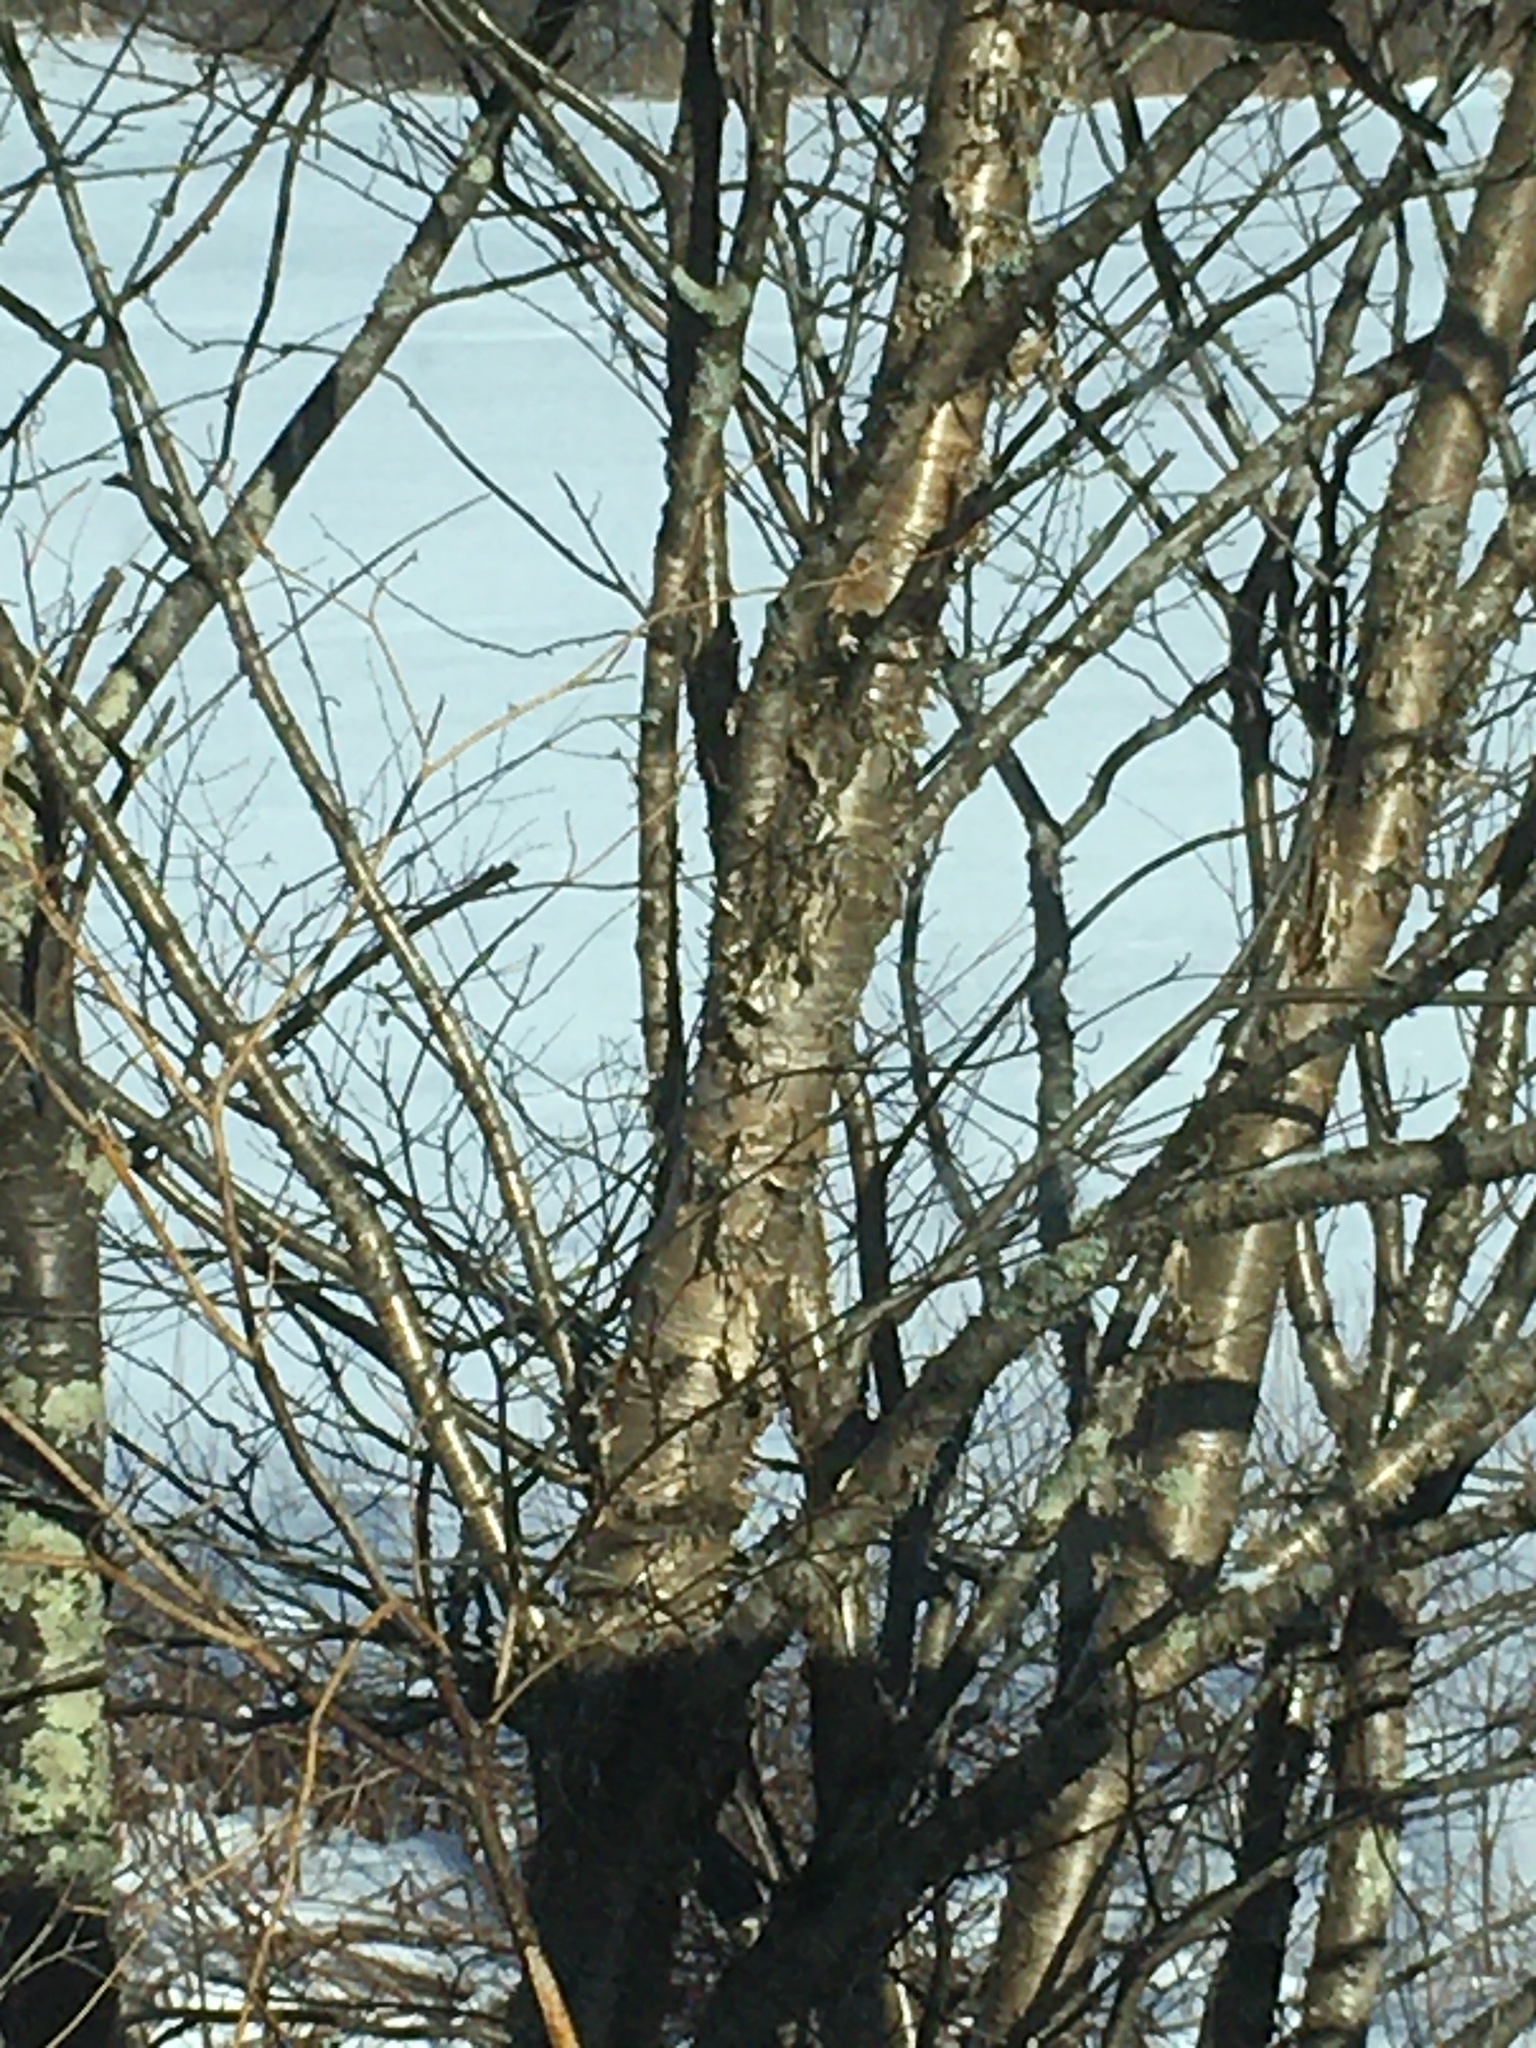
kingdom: Plantae
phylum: Tracheophyta
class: Magnoliopsida
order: Fagales
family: Betulaceae
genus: Betula
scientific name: Betula alleghaniensis
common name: Yellow birch
